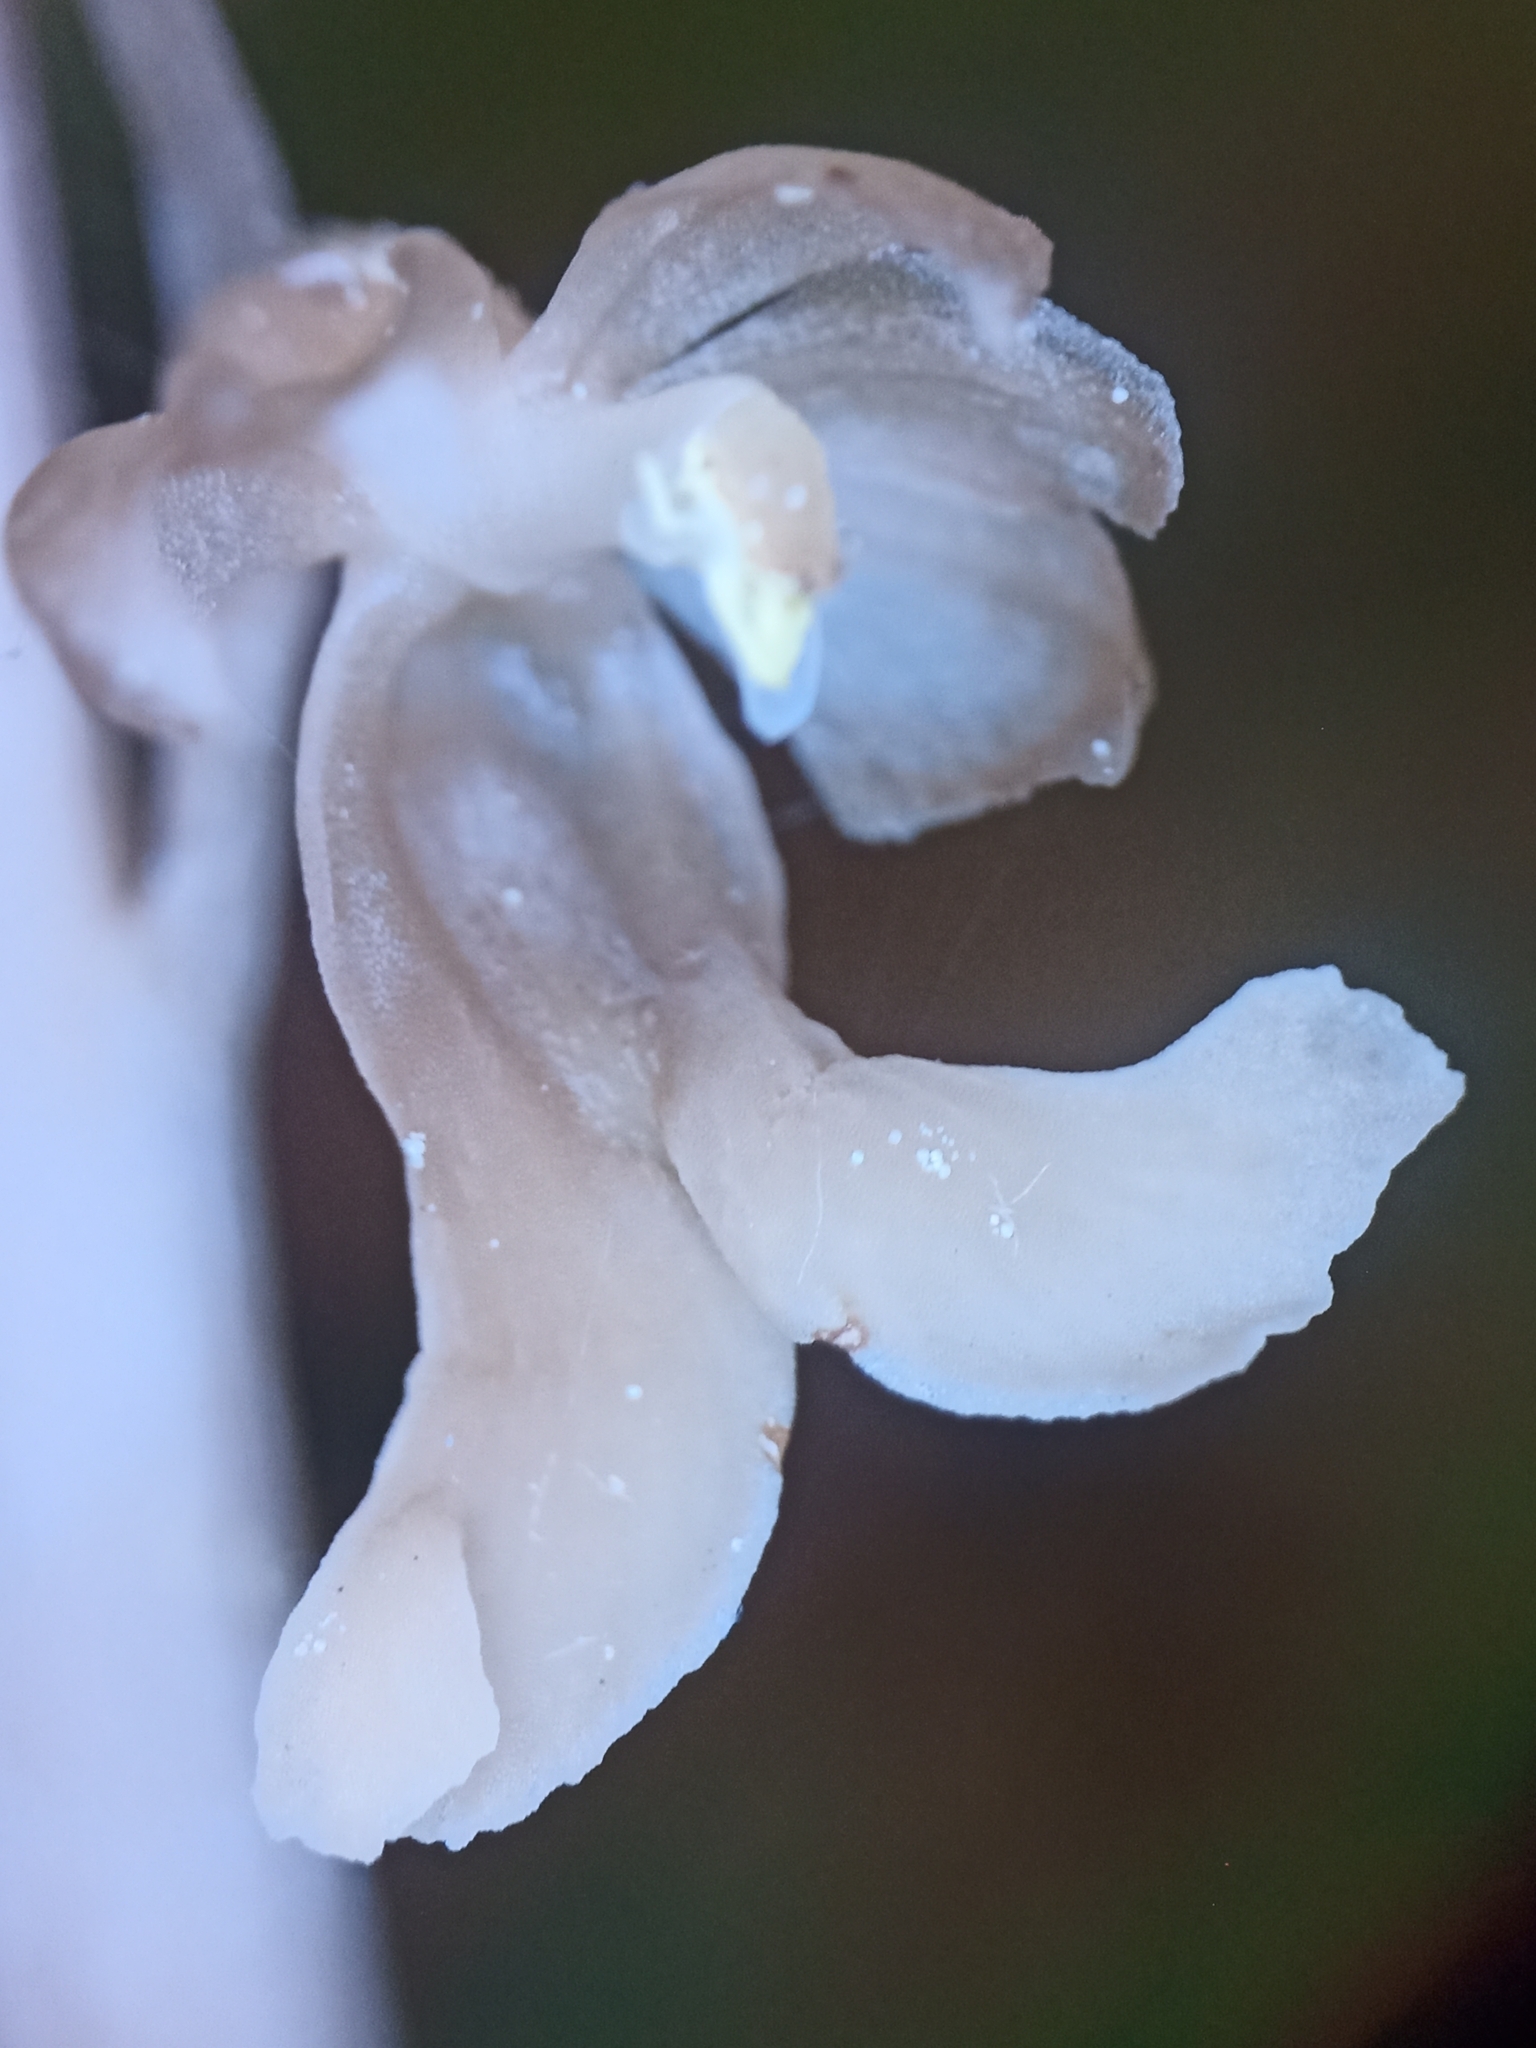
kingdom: Plantae
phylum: Tracheophyta
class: Liliopsida
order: Asparagales
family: Orchidaceae
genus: Neottia
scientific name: Neottia nidus-avis
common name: Bird's-nest orchid
